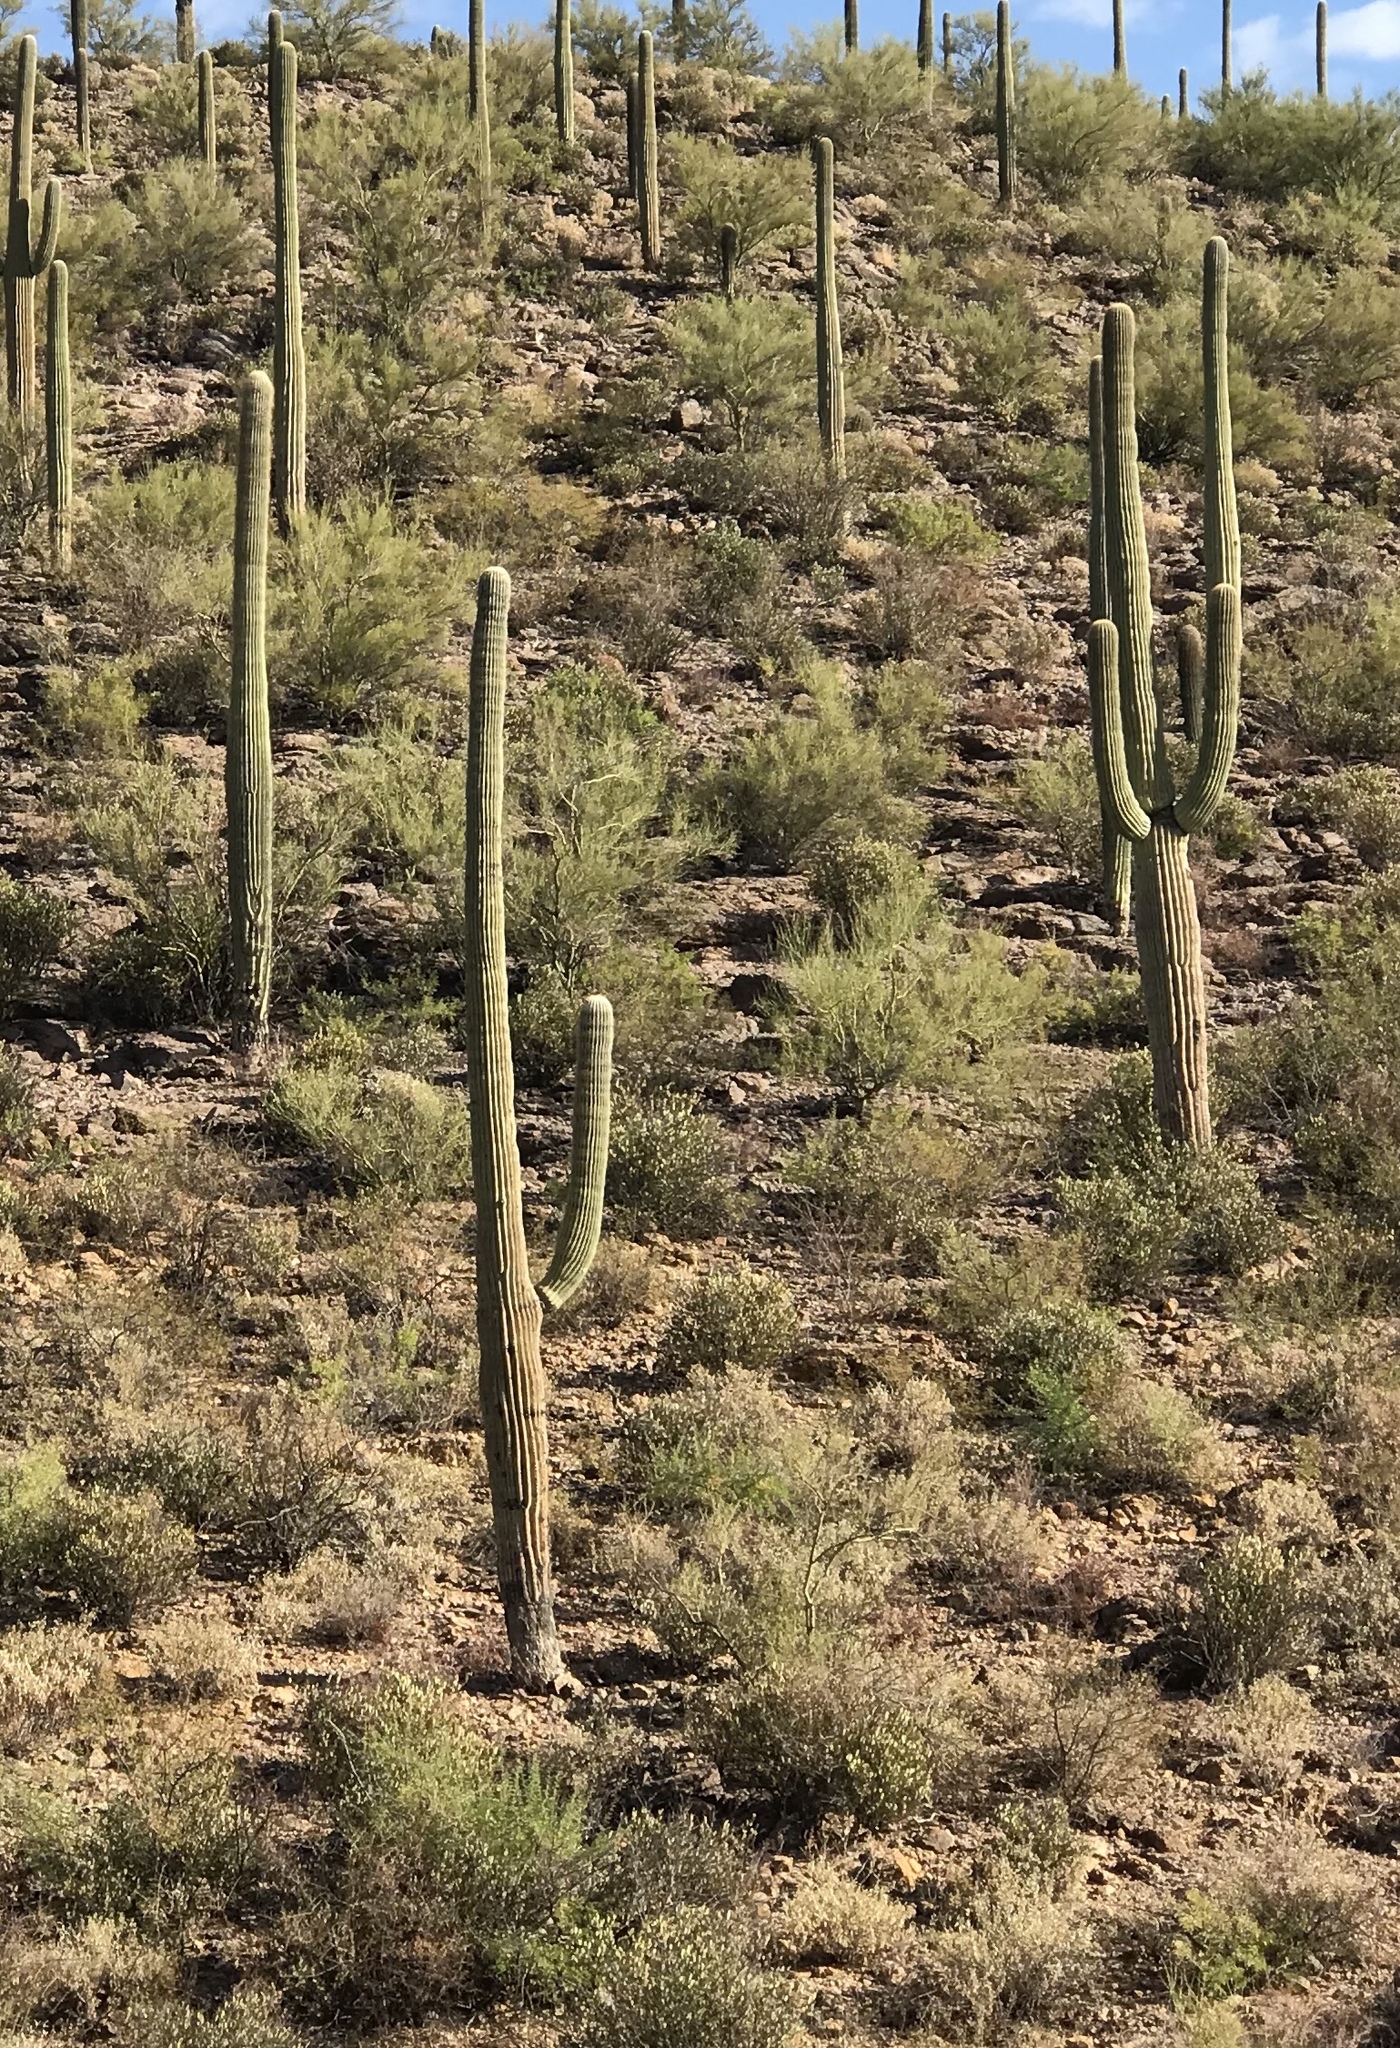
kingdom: Plantae
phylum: Tracheophyta
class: Magnoliopsida
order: Caryophyllales
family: Cactaceae
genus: Carnegiea
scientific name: Carnegiea gigantea
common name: Saguaro
